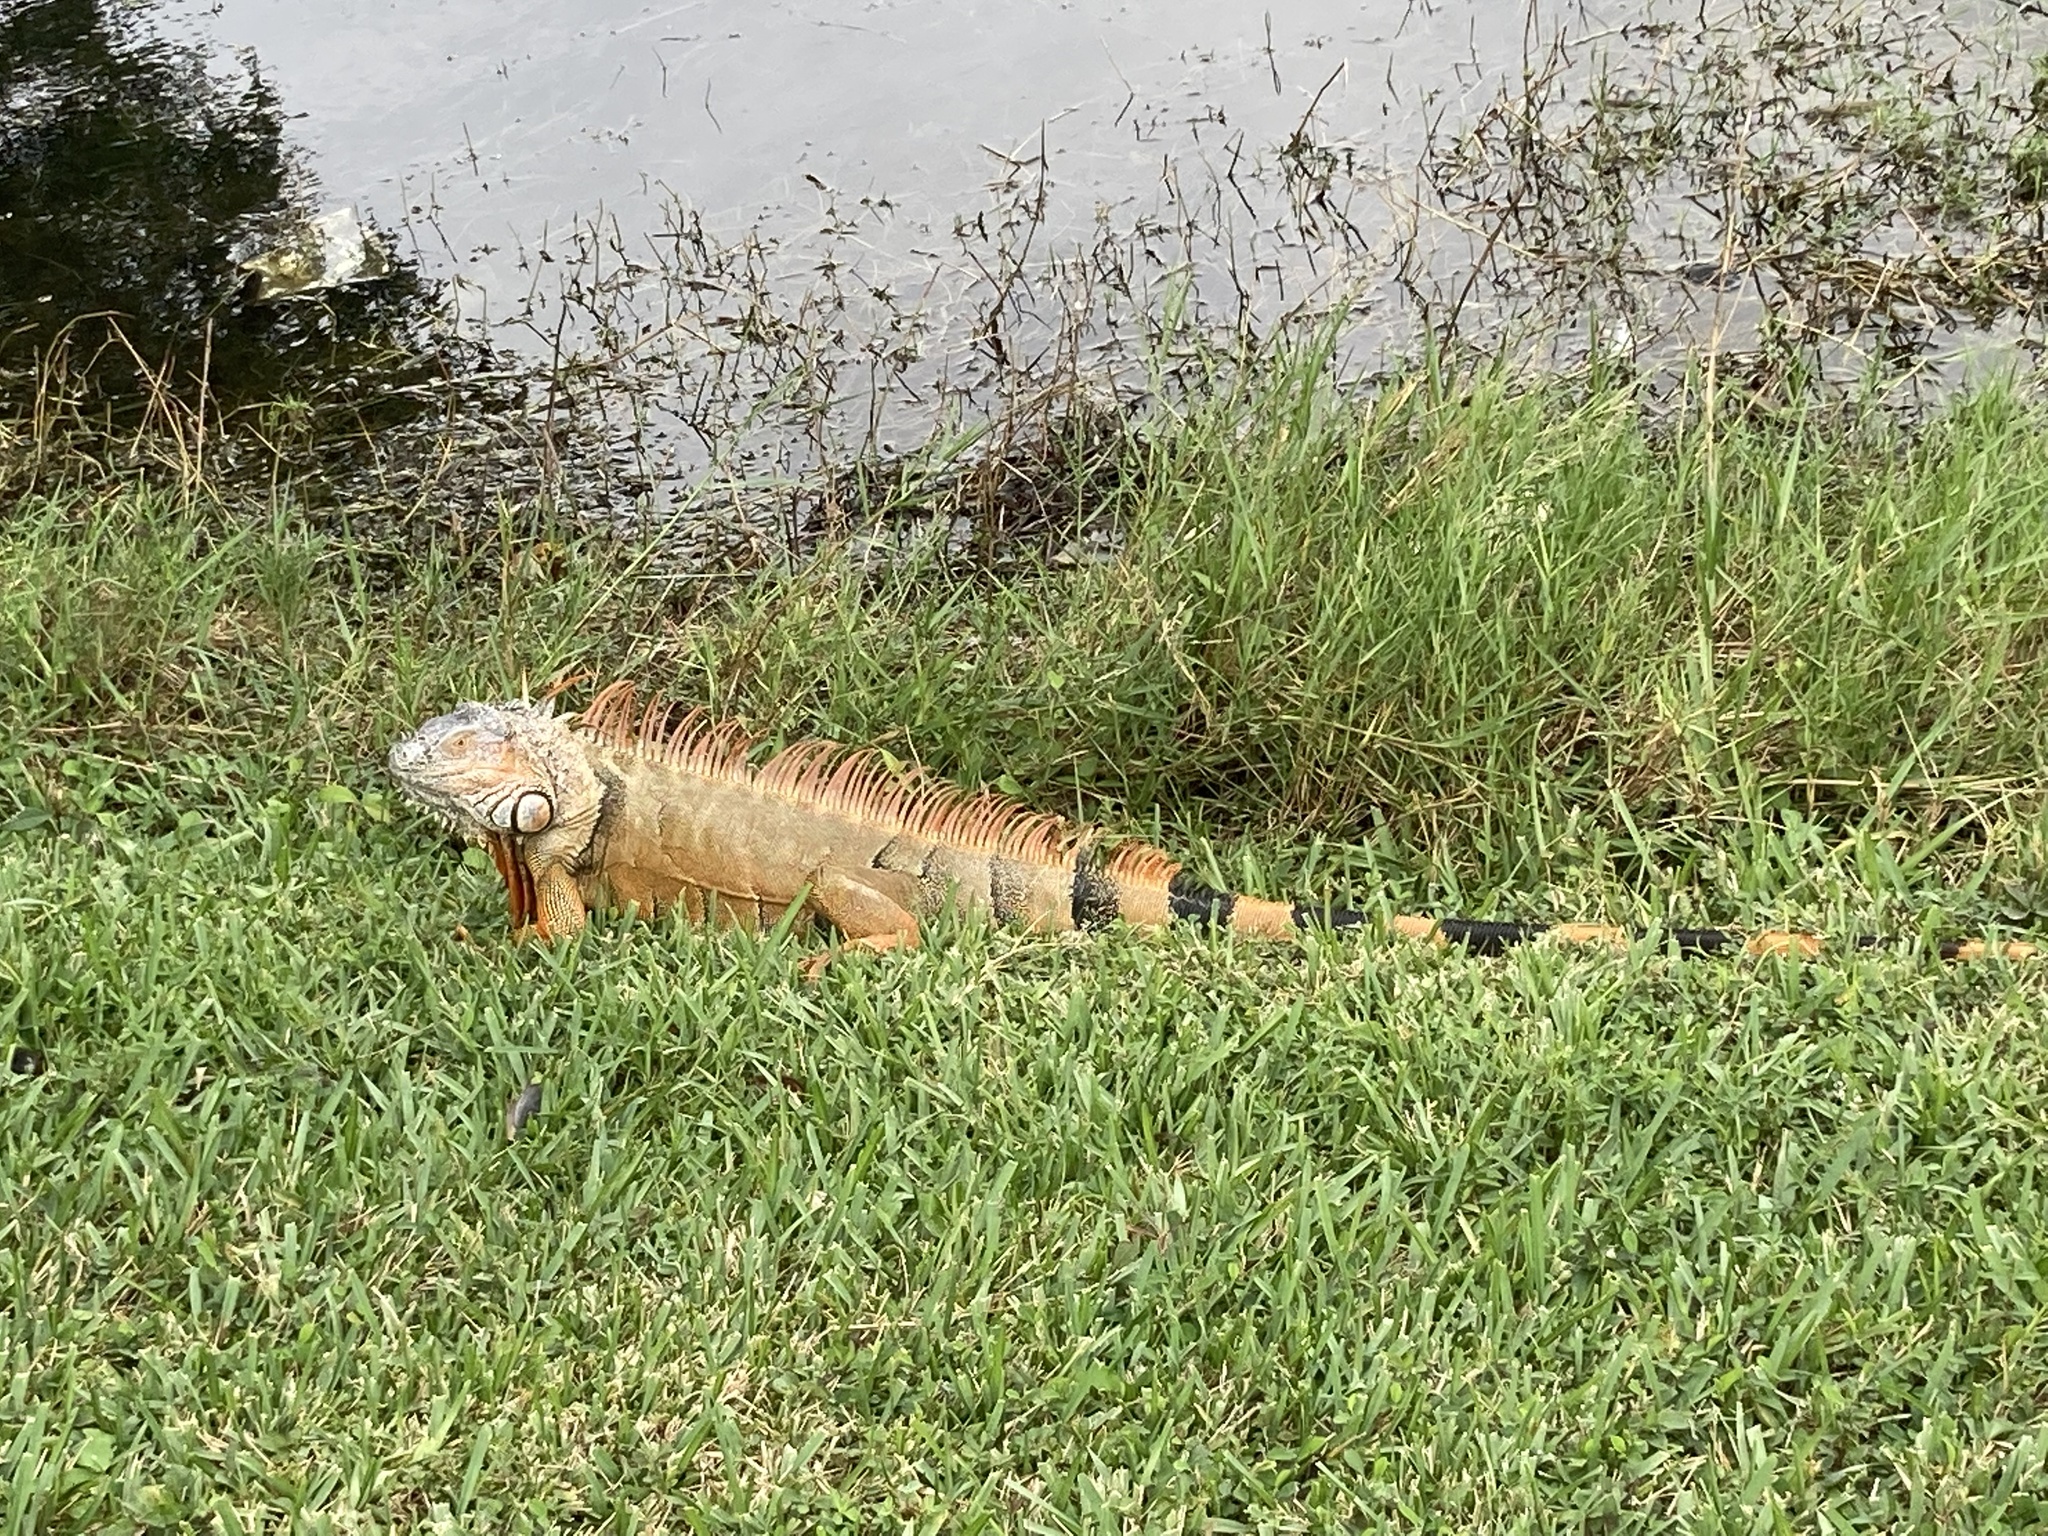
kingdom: Animalia
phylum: Chordata
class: Squamata
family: Iguanidae
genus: Iguana
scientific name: Iguana iguana
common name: Green iguana
